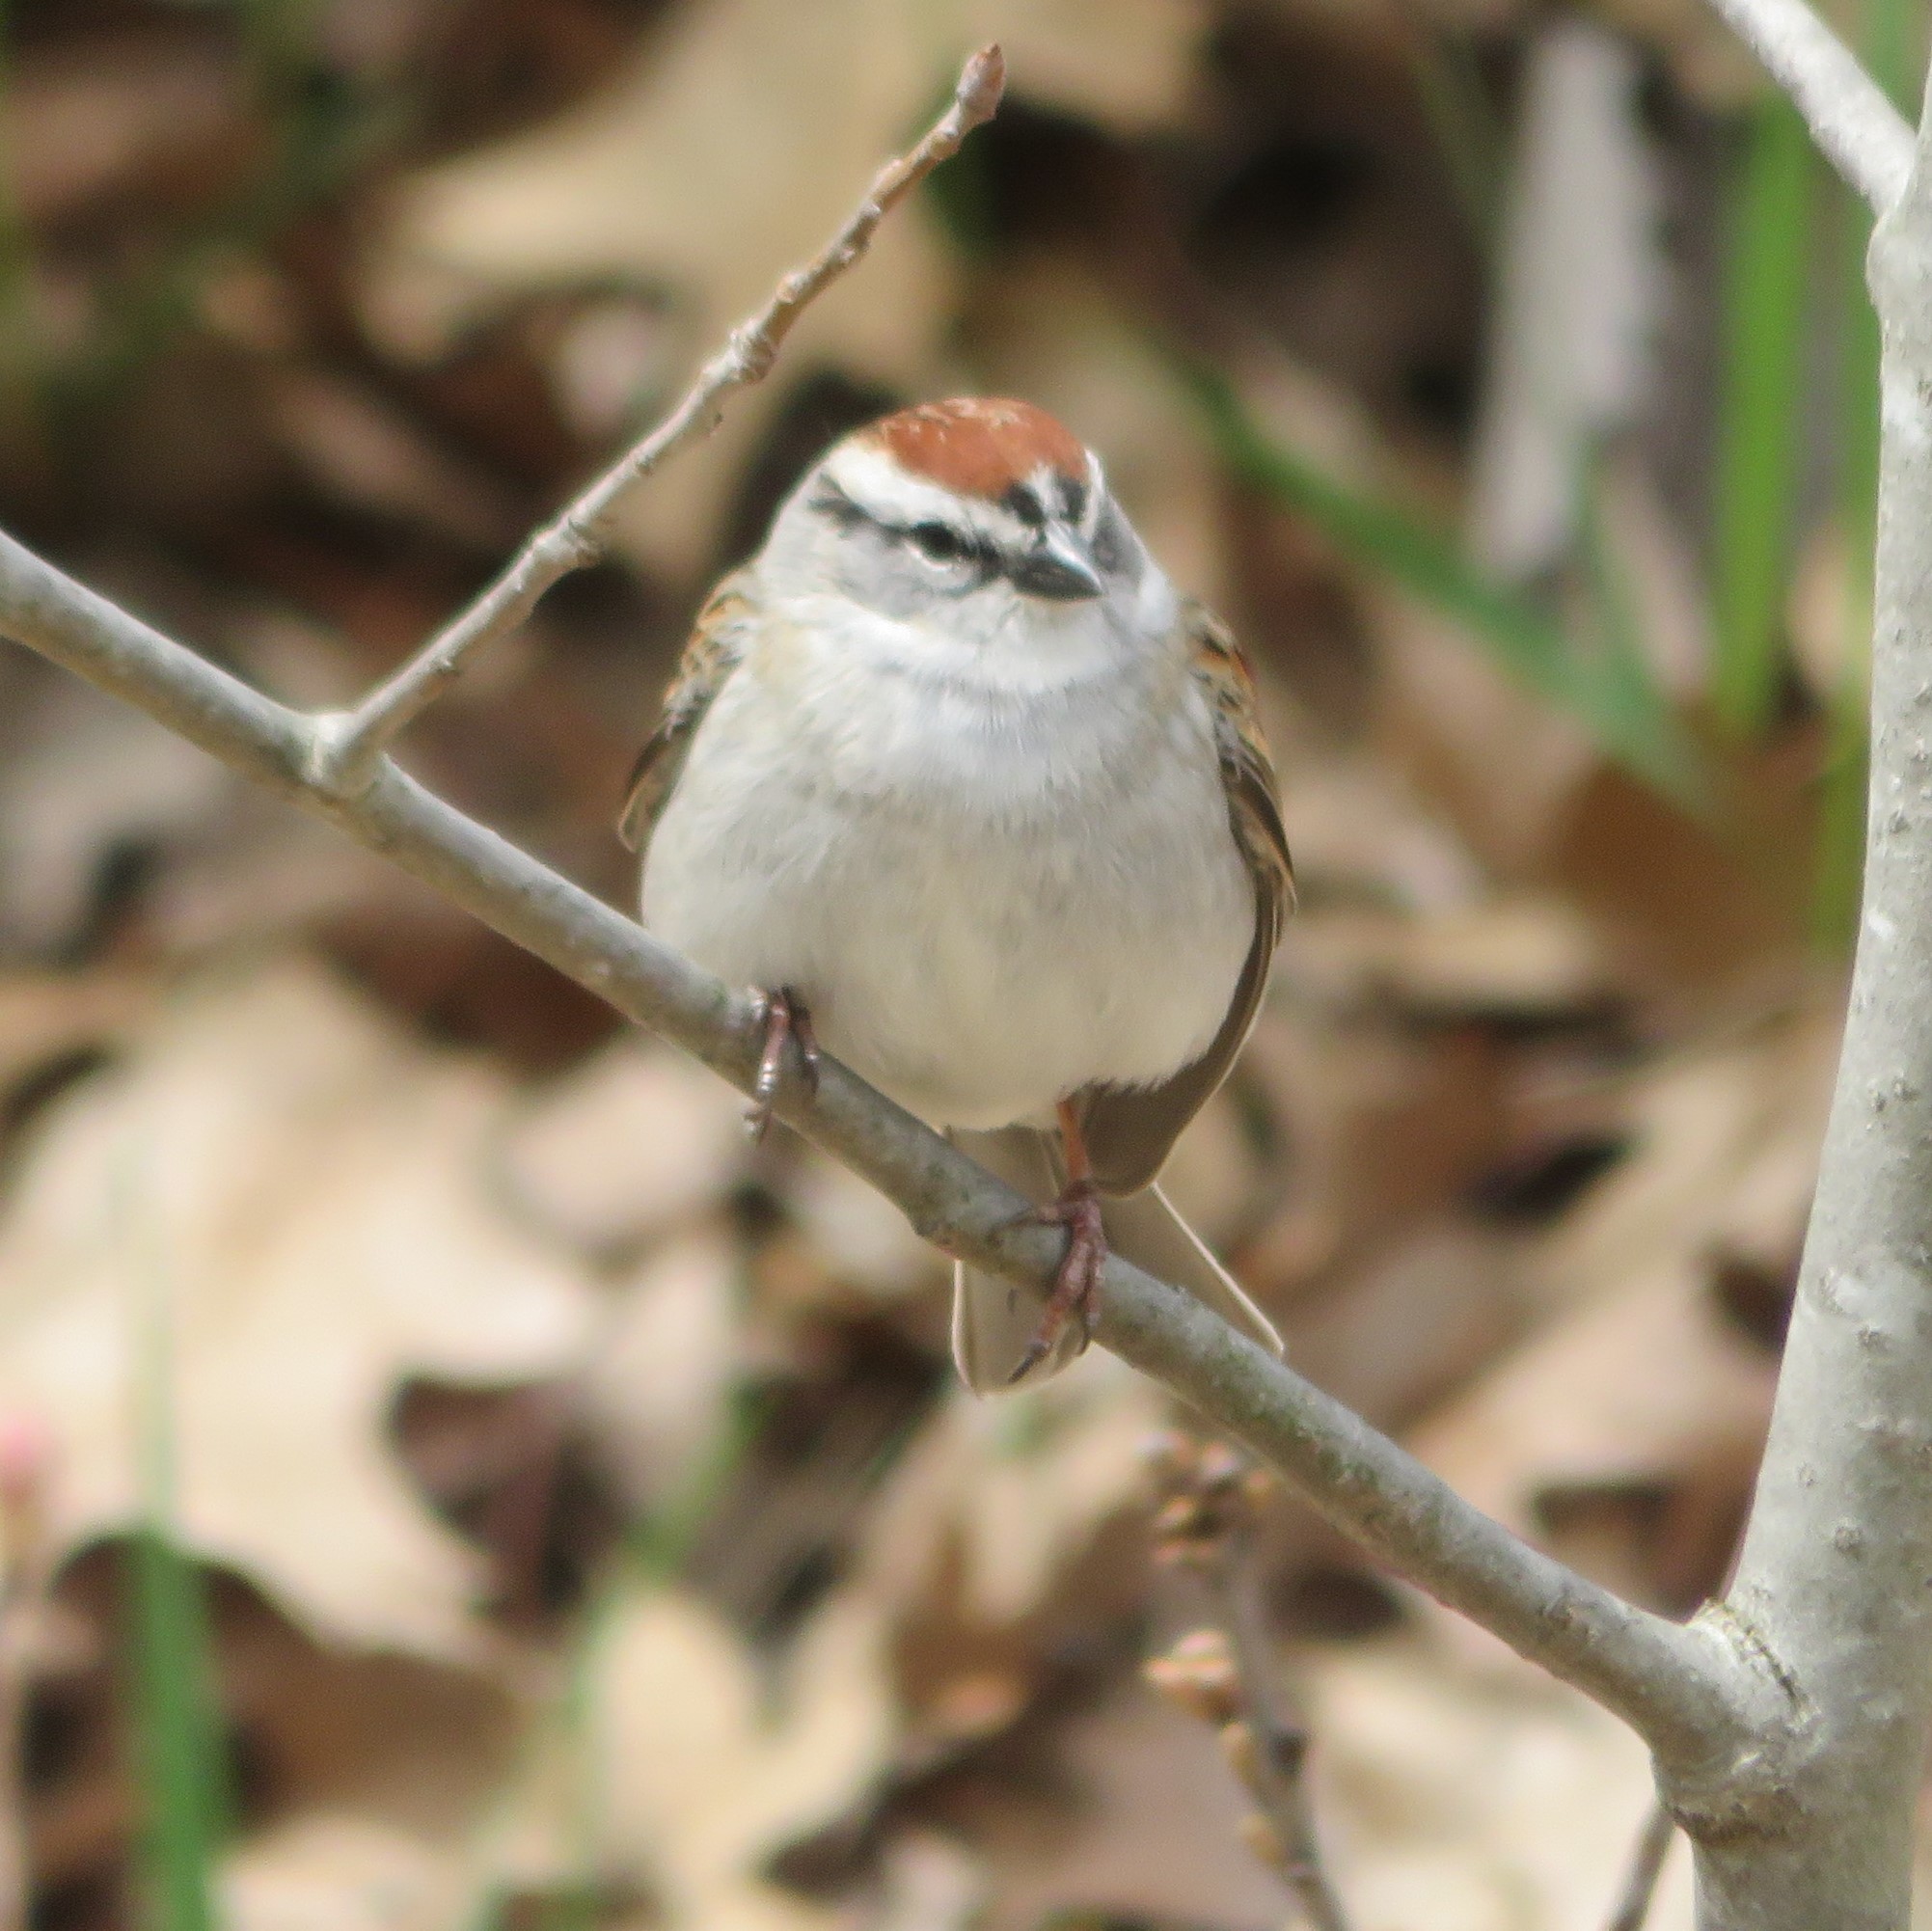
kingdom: Animalia
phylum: Chordata
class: Aves
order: Passeriformes
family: Passerellidae
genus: Spizella
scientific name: Spizella passerina
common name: Chipping sparrow
